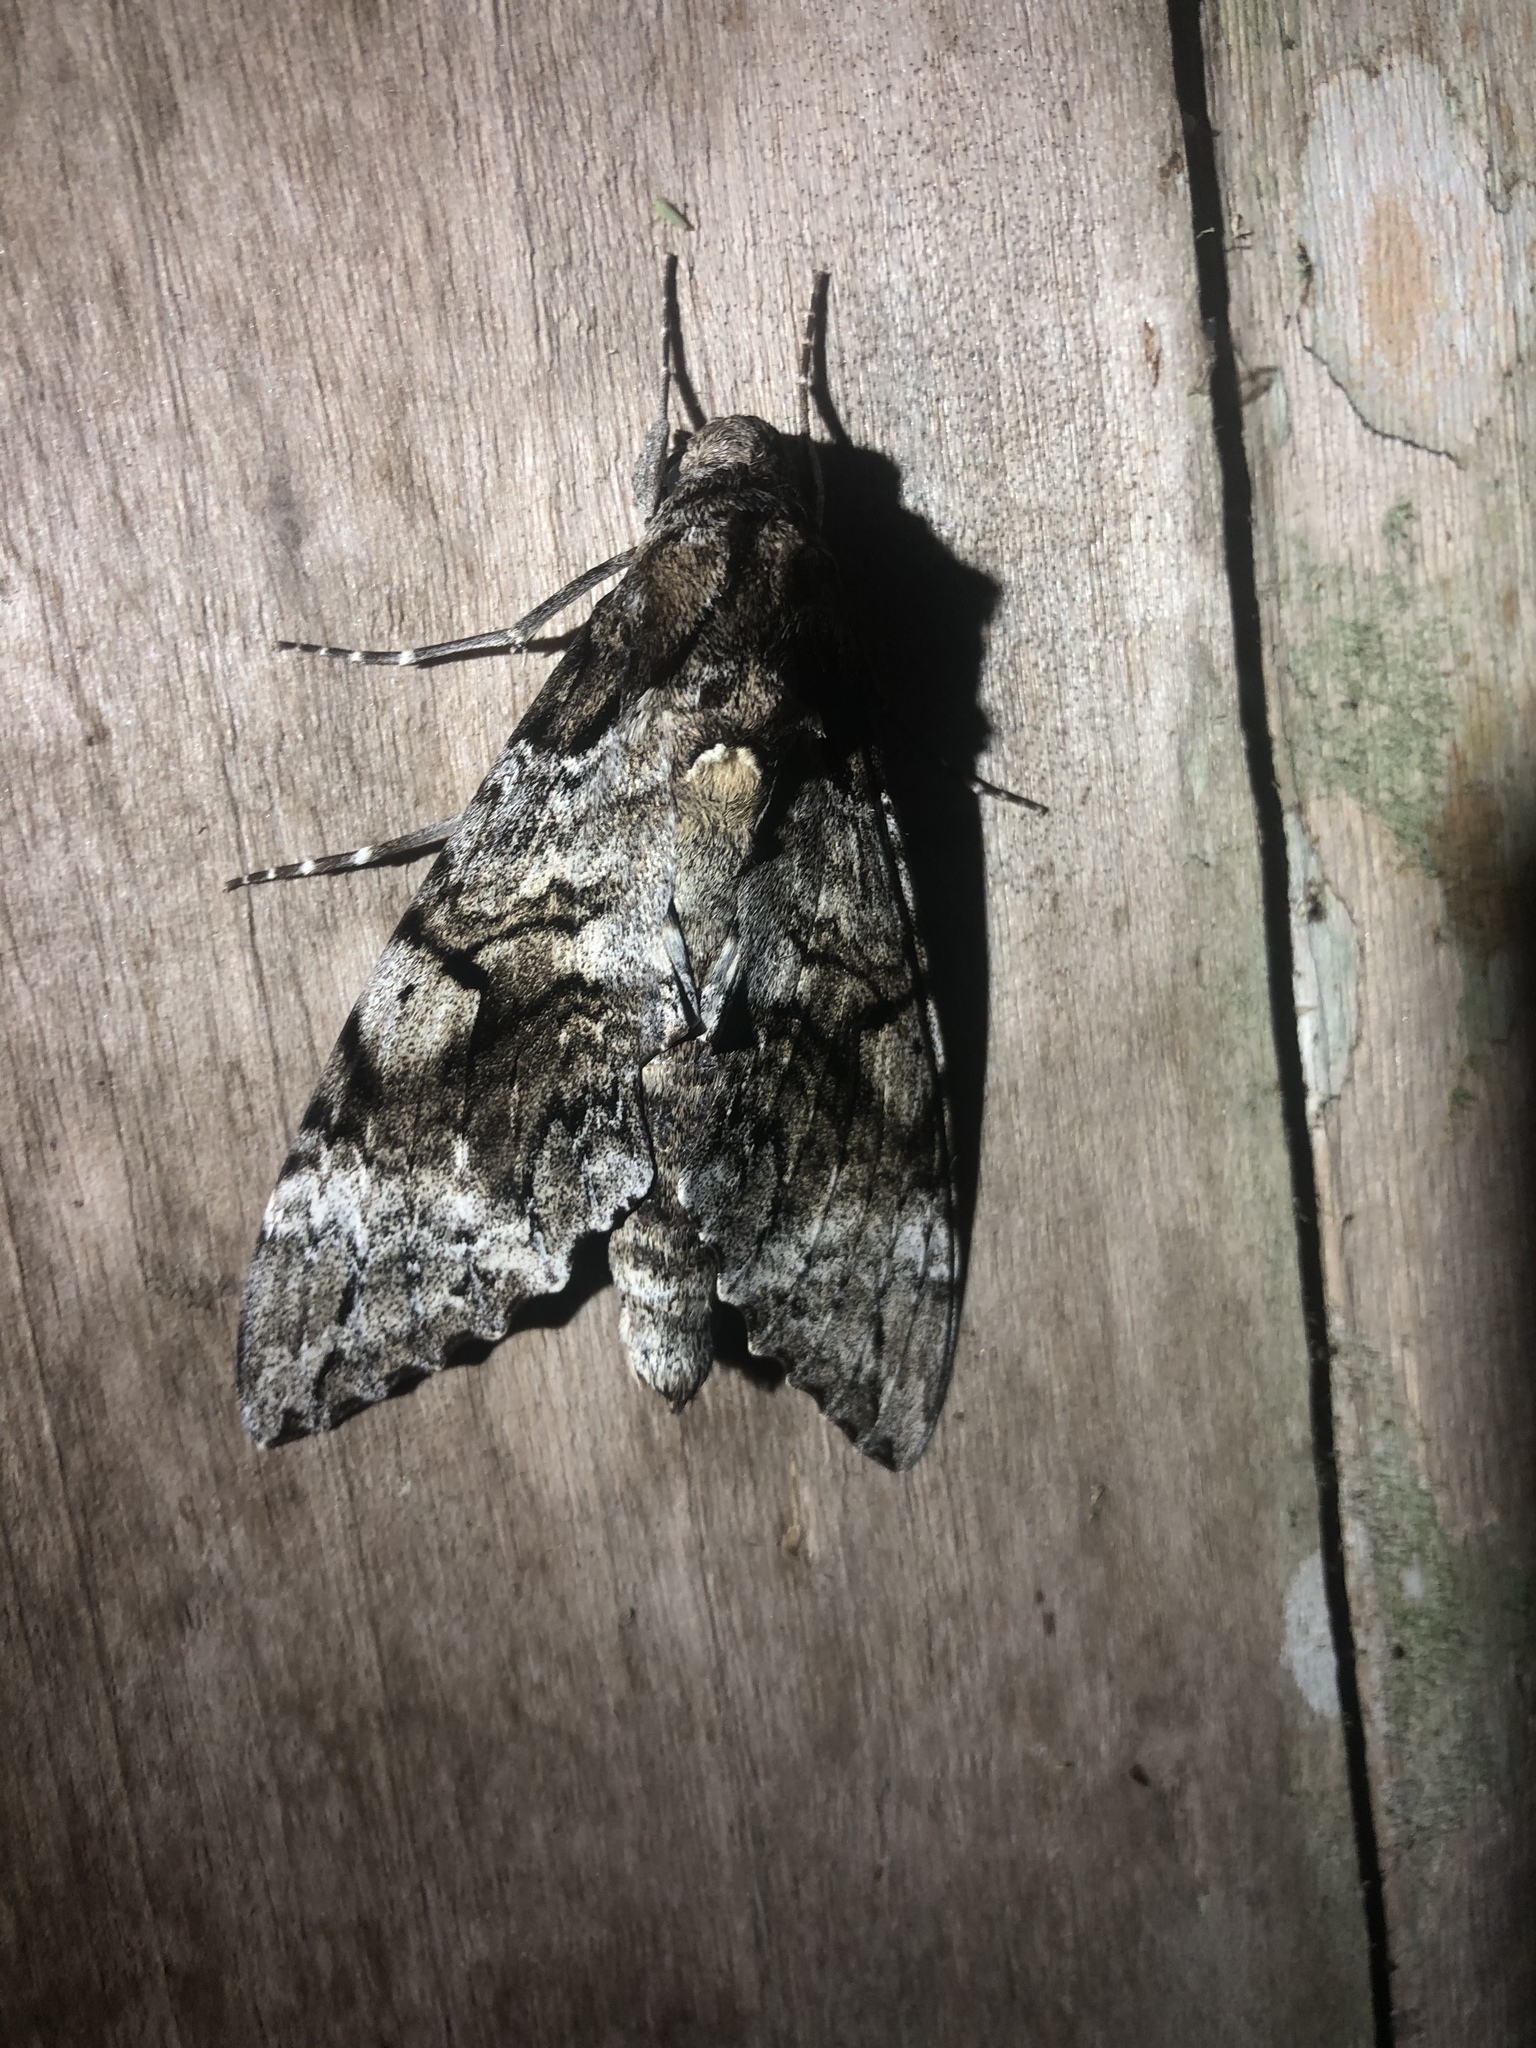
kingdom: Animalia
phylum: Arthropoda
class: Insecta
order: Lepidoptera
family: Sphingidae
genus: Pseudosphinx
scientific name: Pseudosphinx tetrio
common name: Tetrio sphinx
